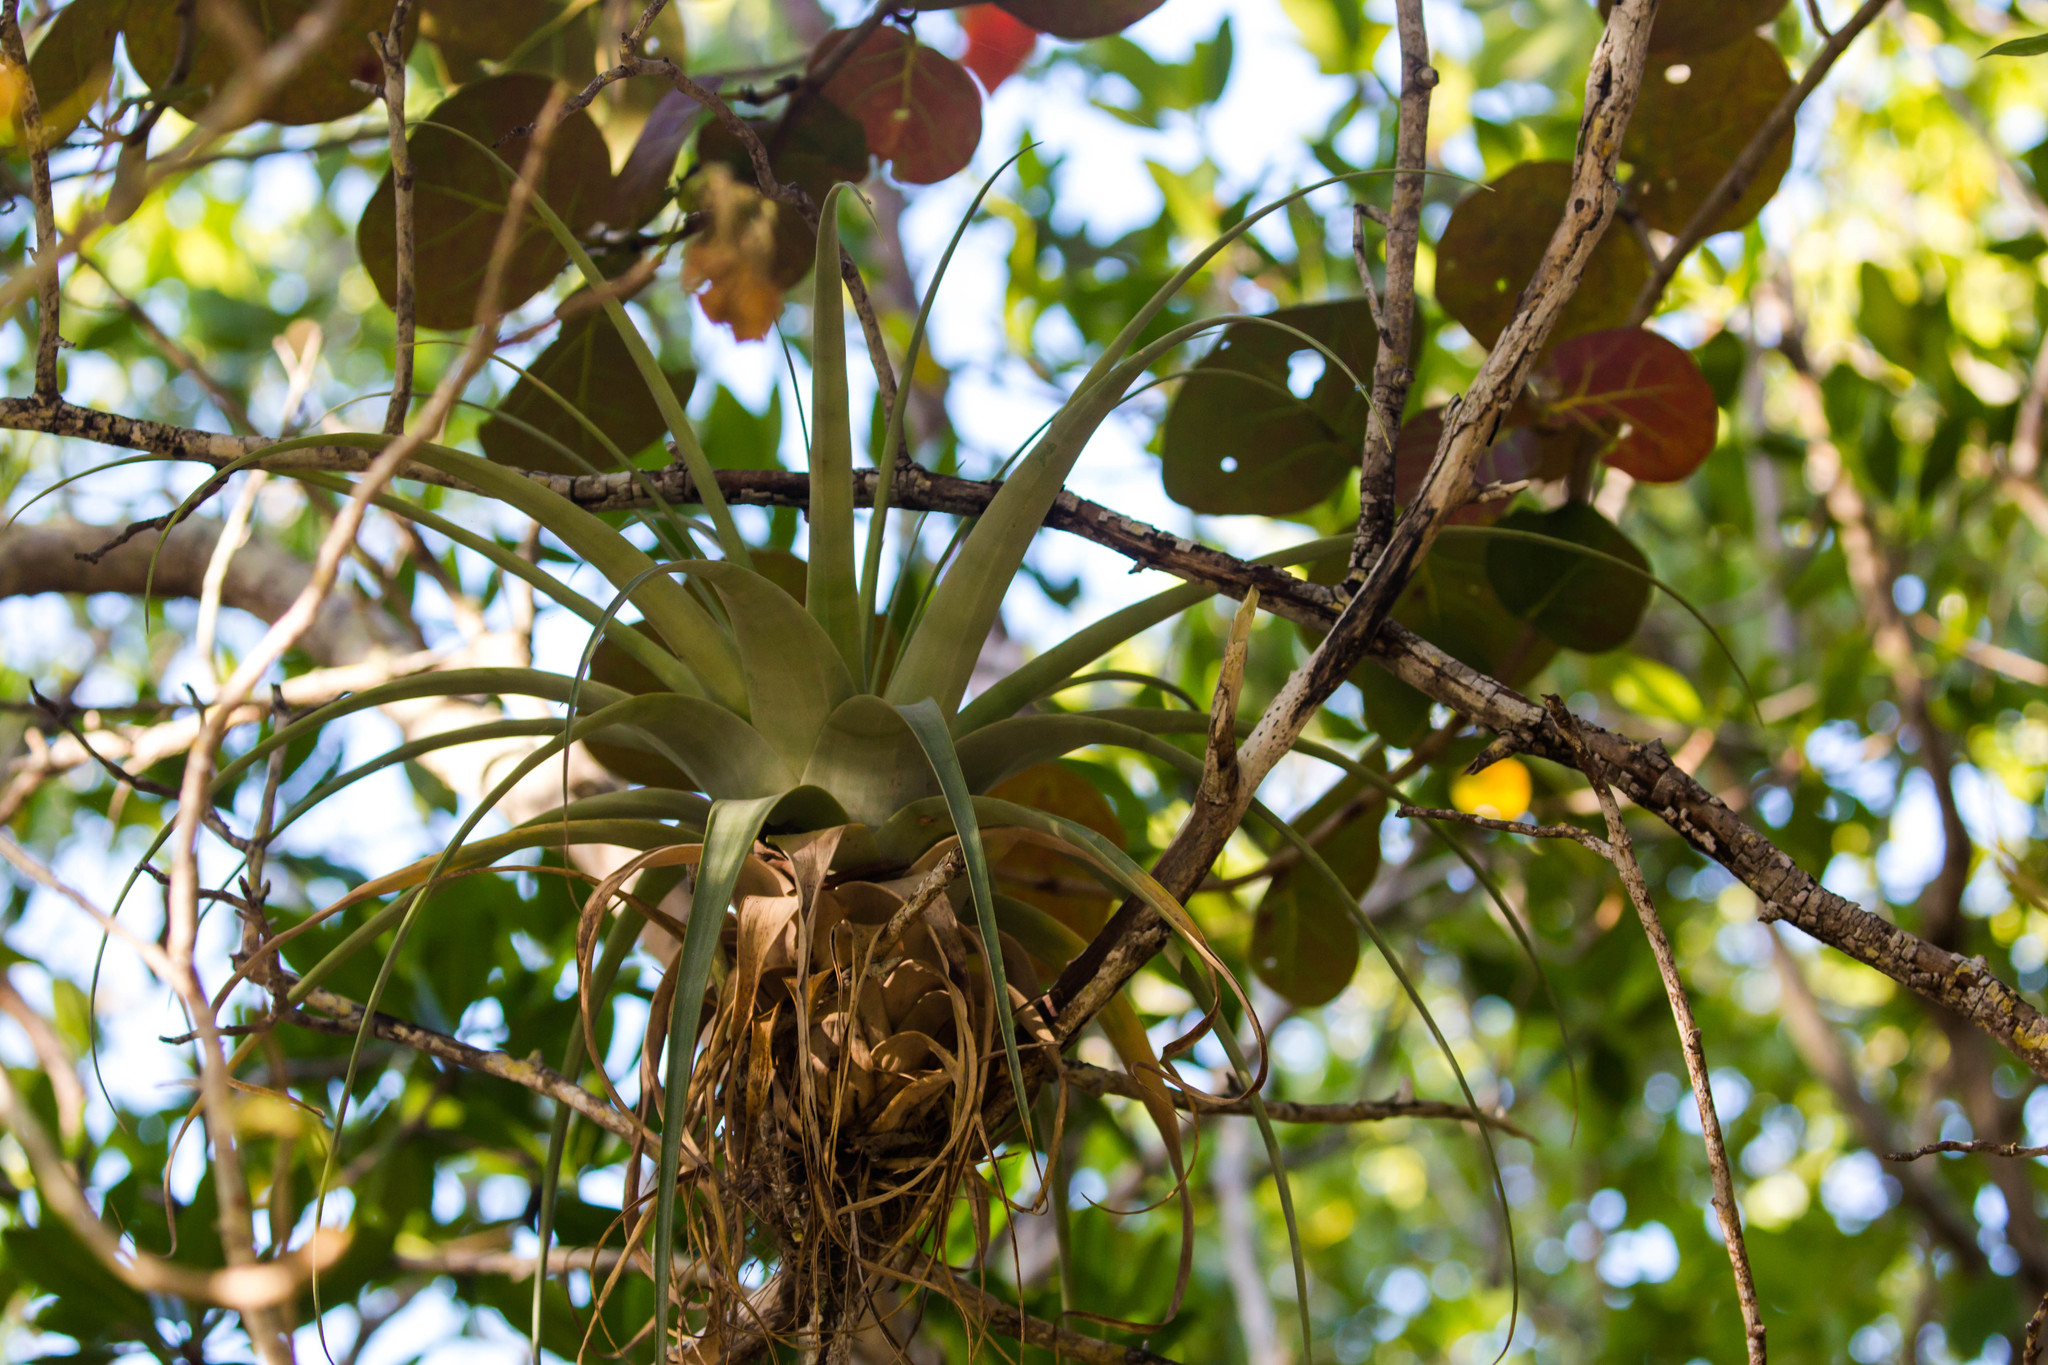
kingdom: Plantae
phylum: Tracheophyta
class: Liliopsida
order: Poales
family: Bromeliaceae
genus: Tillandsia
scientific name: Tillandsia utriculata
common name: Wild pine
